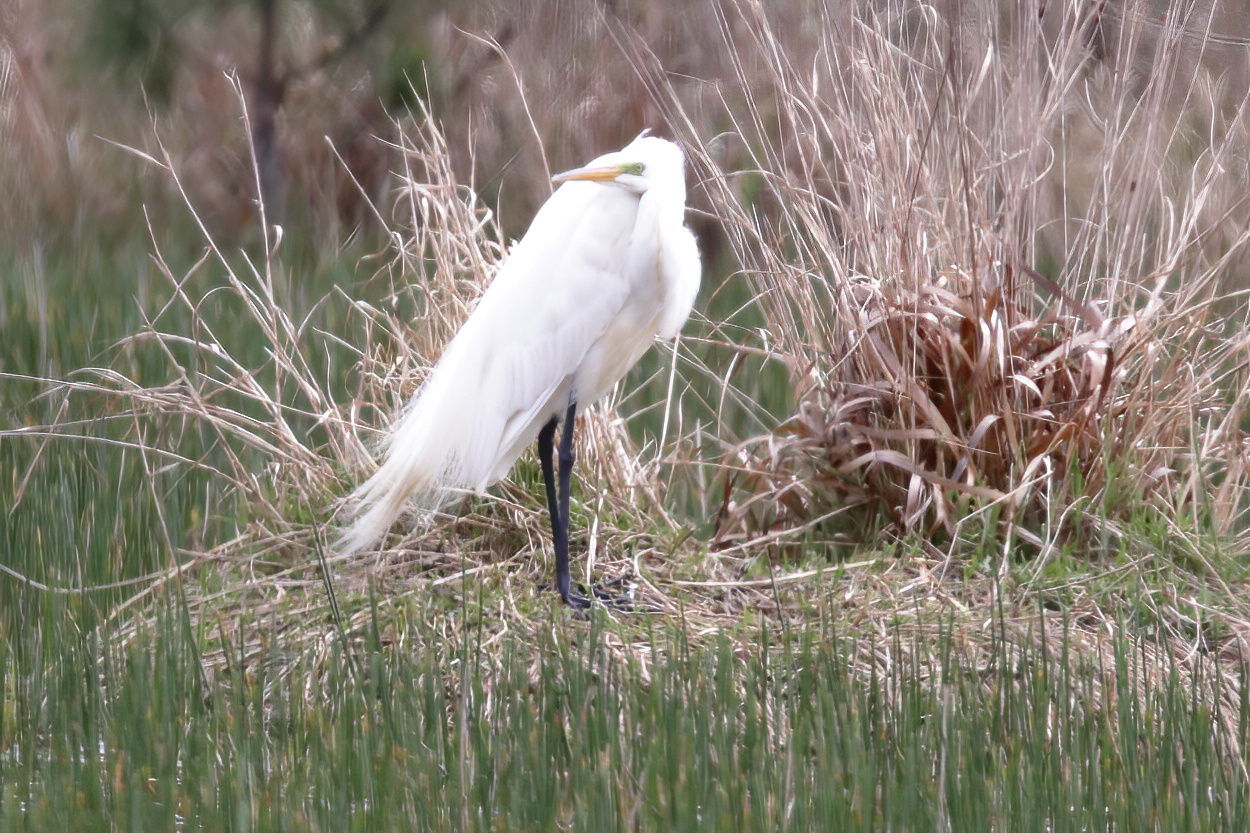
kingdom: Animalia
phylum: Chordata
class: Aves
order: Pelecaniformes
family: Ardeidae
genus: Ardea
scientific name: Ardea alba
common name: Great egret
